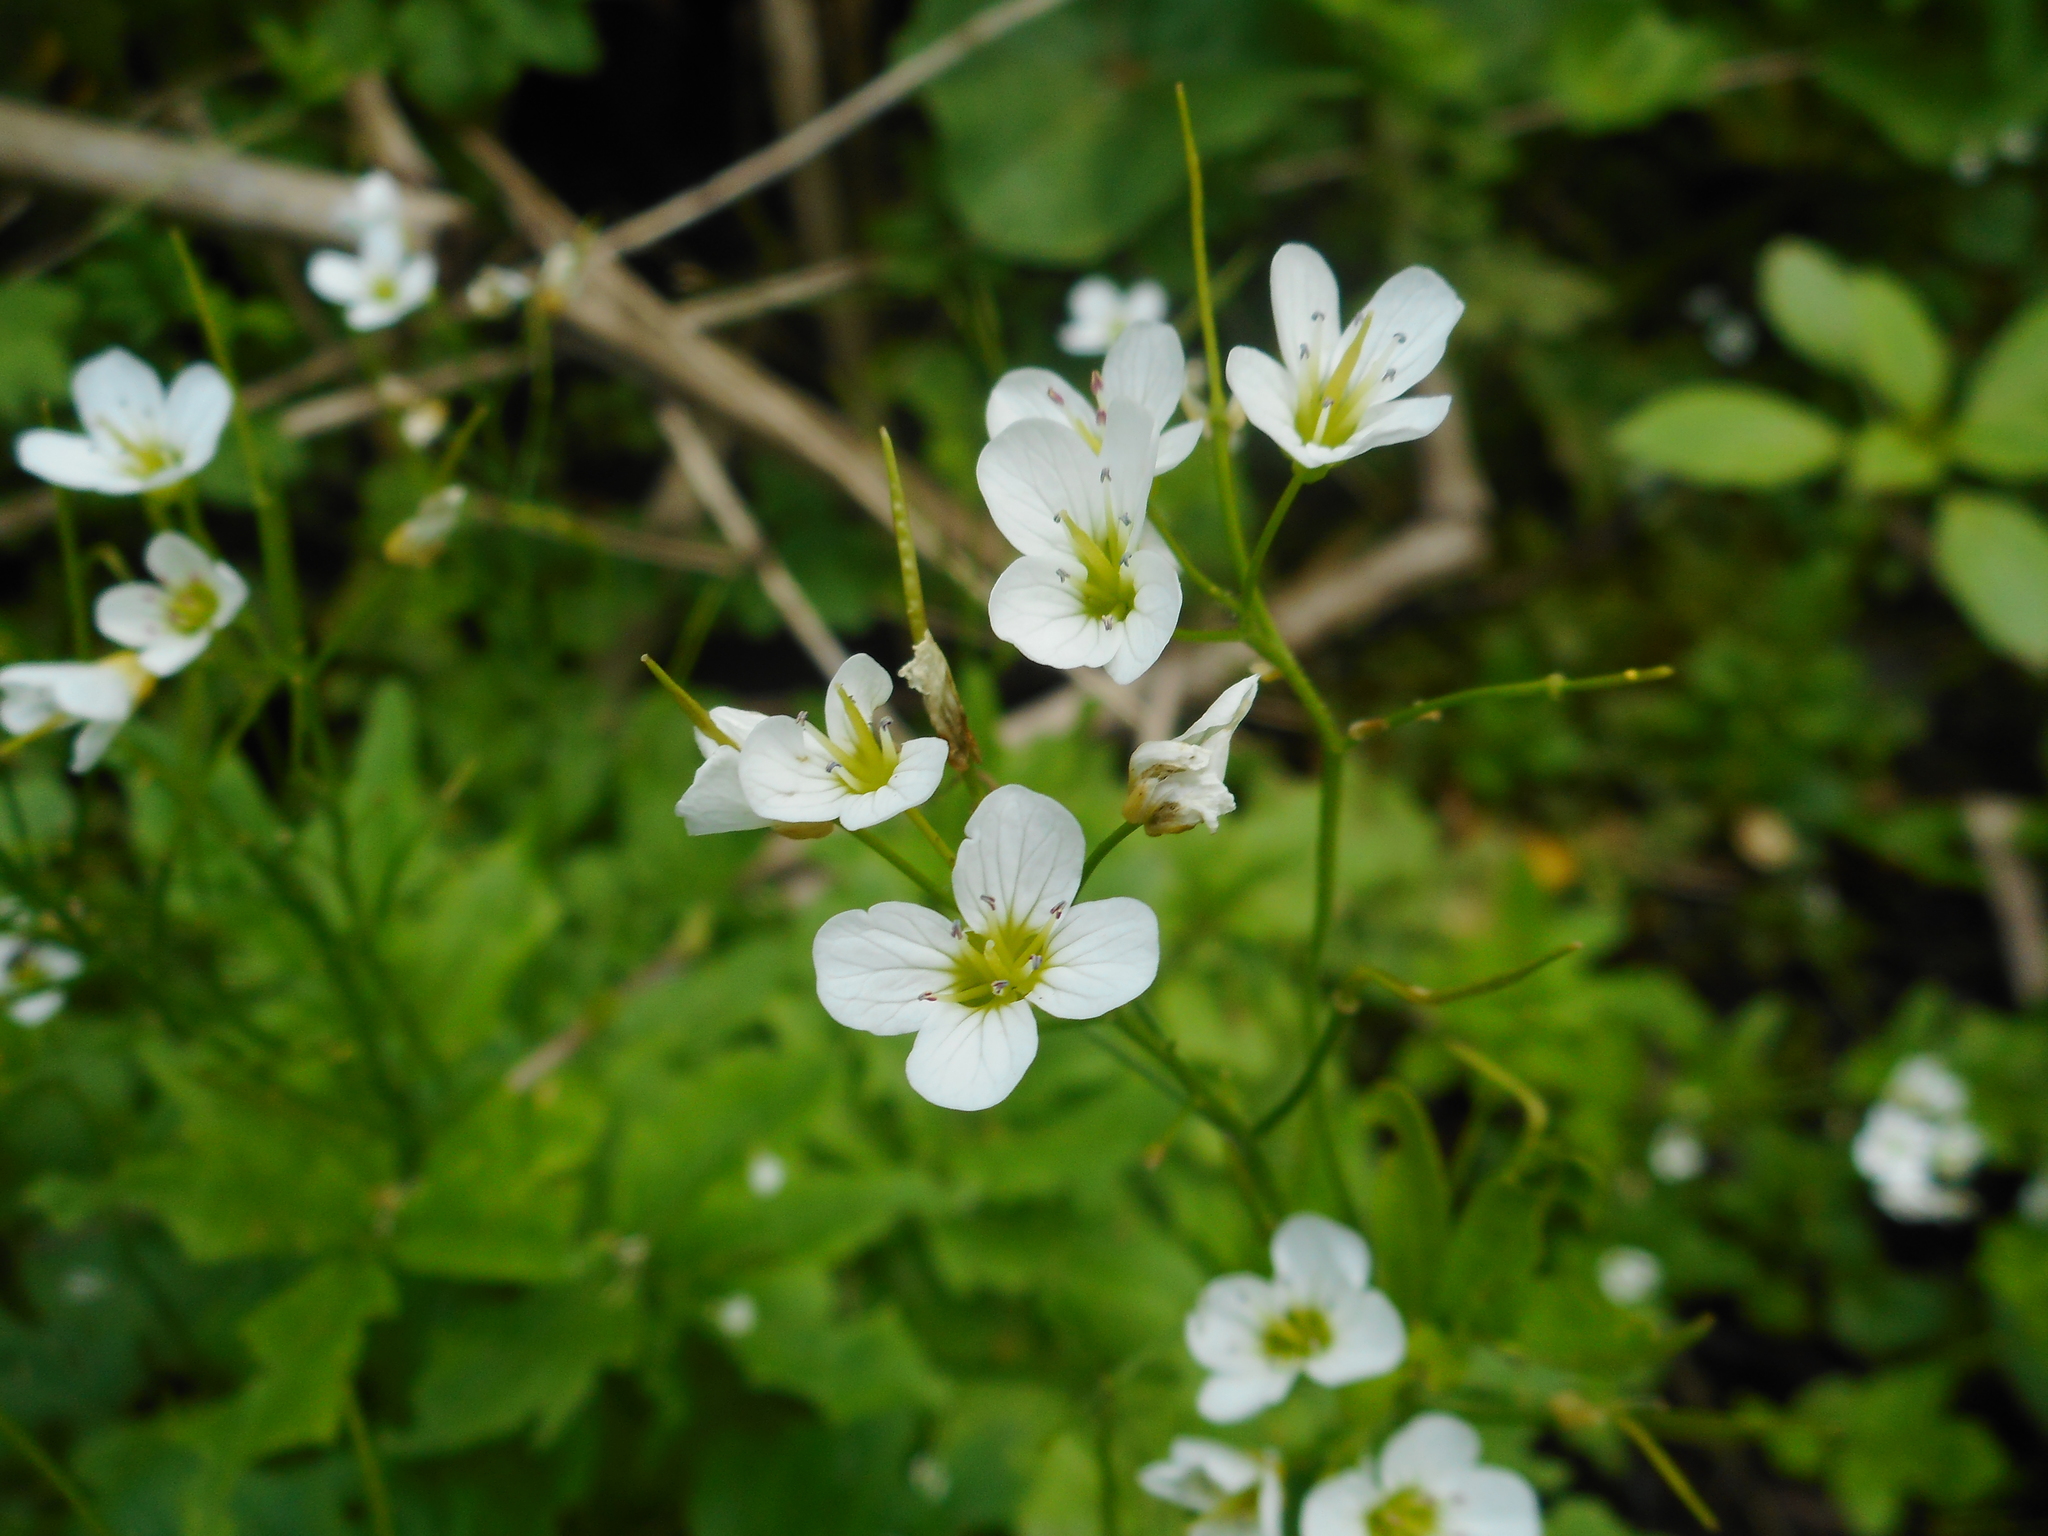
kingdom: Plantae
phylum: Tracheophyta
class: Magnoliopsida
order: Brassicales
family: Brassicaceae
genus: Cardamine
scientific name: Cardamine amara
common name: Large bitter-cress
